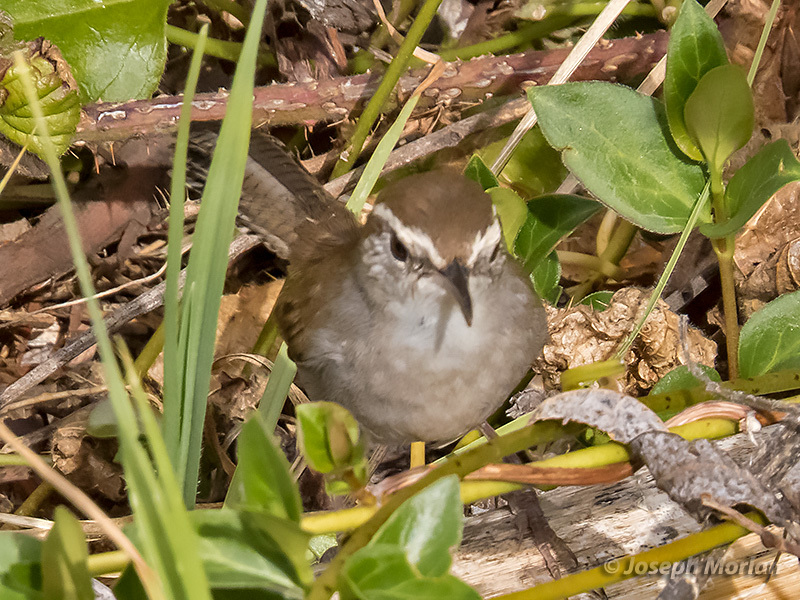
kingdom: Animalia
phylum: Chordata
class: Aves
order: Passeriformes
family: Troglodytidae
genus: Thryomanes
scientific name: Thryomanes bewickii
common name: Bewick's wren
